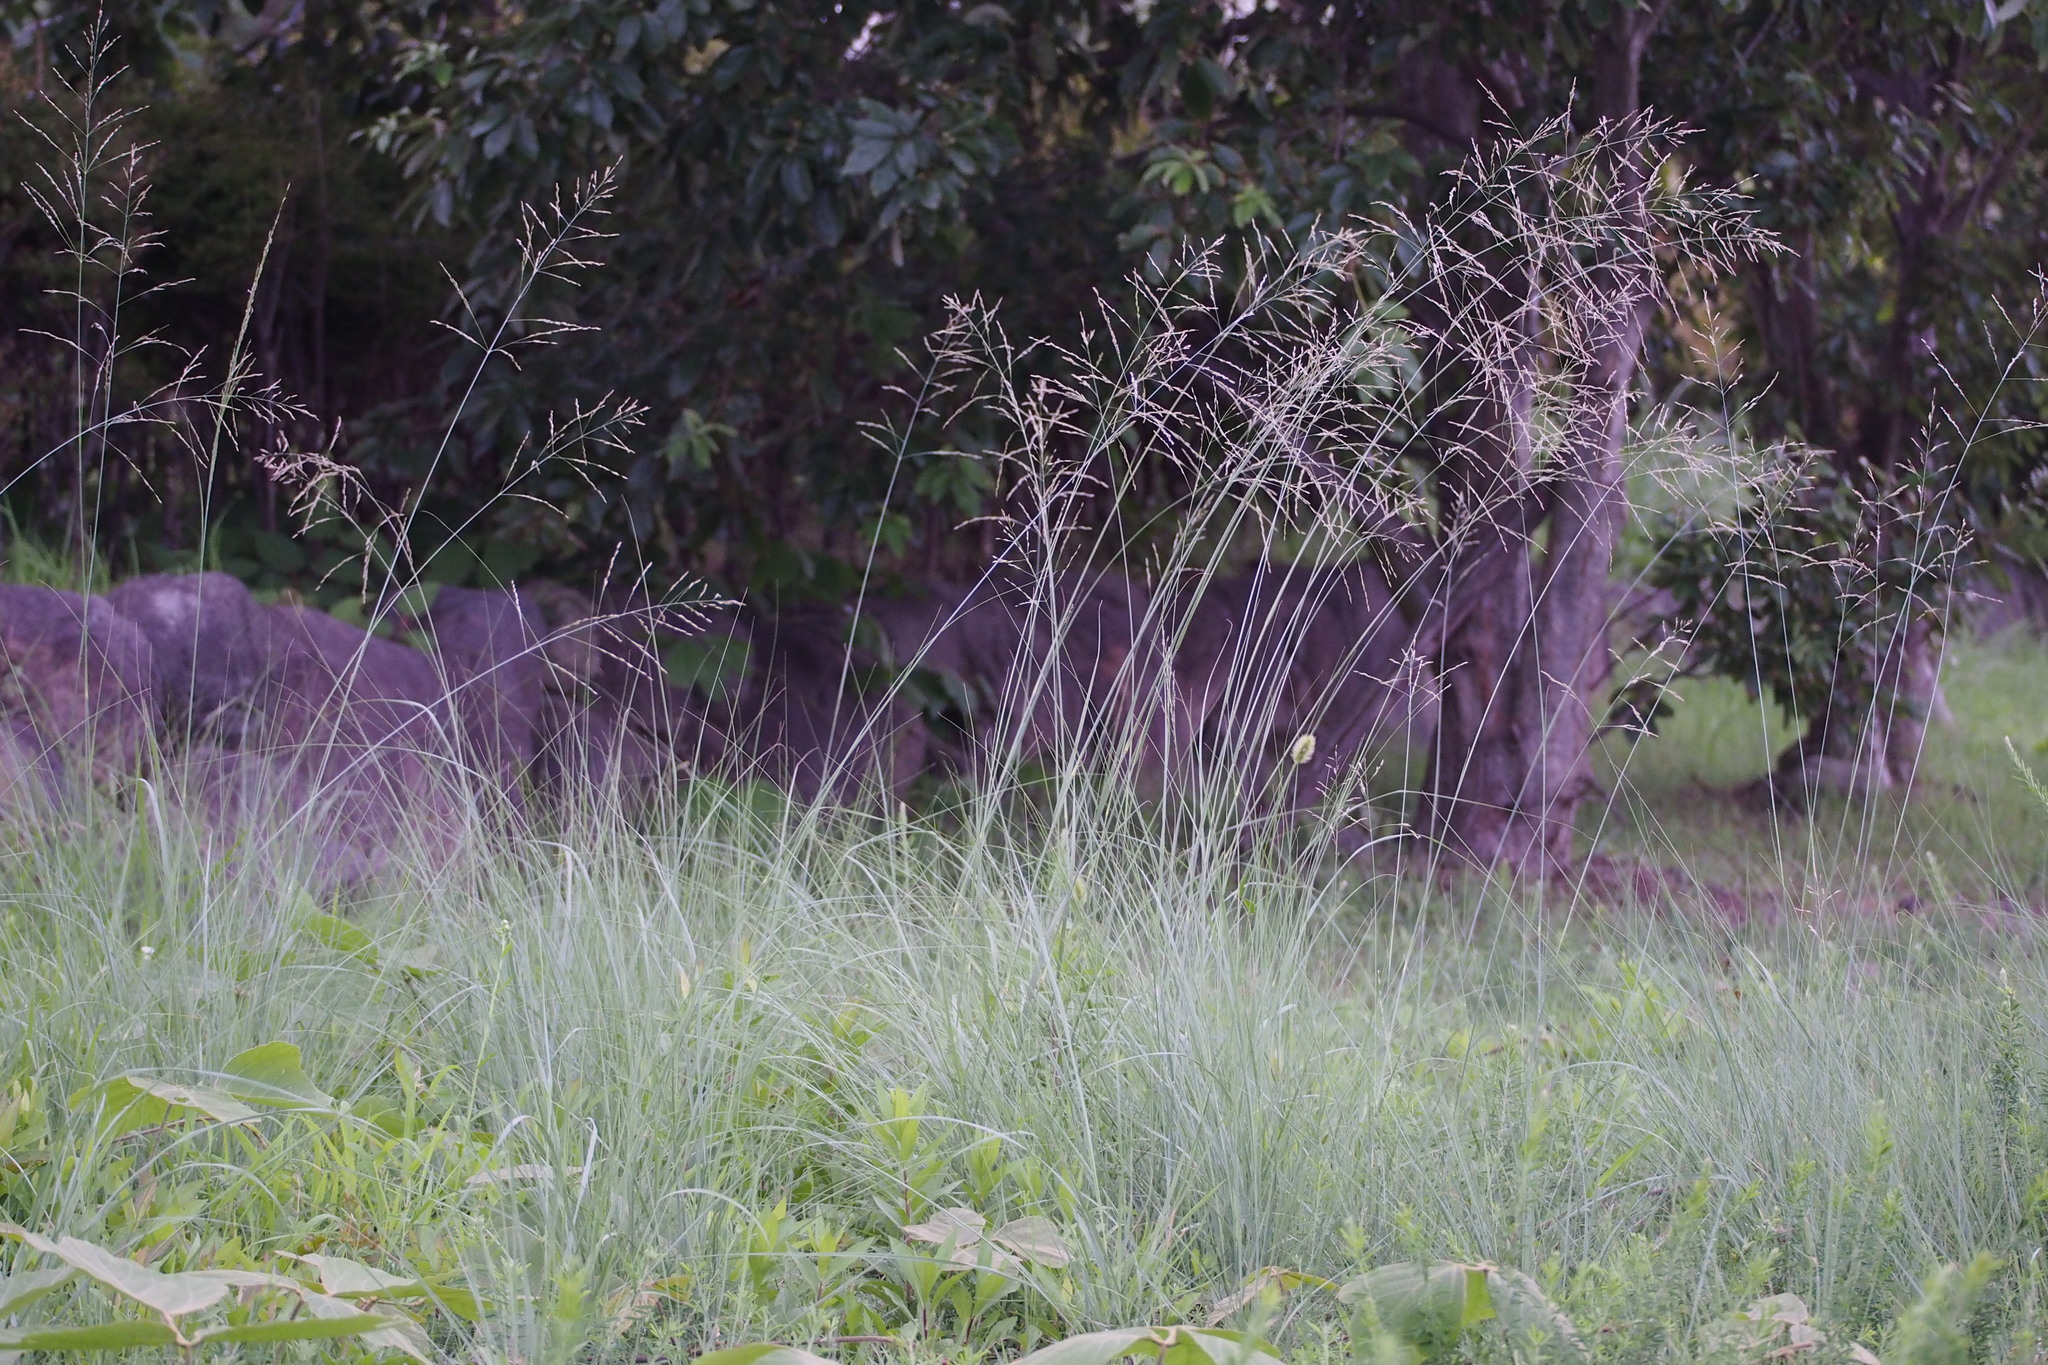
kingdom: Plantae
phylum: Tracheophyta
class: Liliopsida
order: Poales
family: Poaceae
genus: Eragrostis
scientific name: Eragrostis curvula
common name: African love-grass
